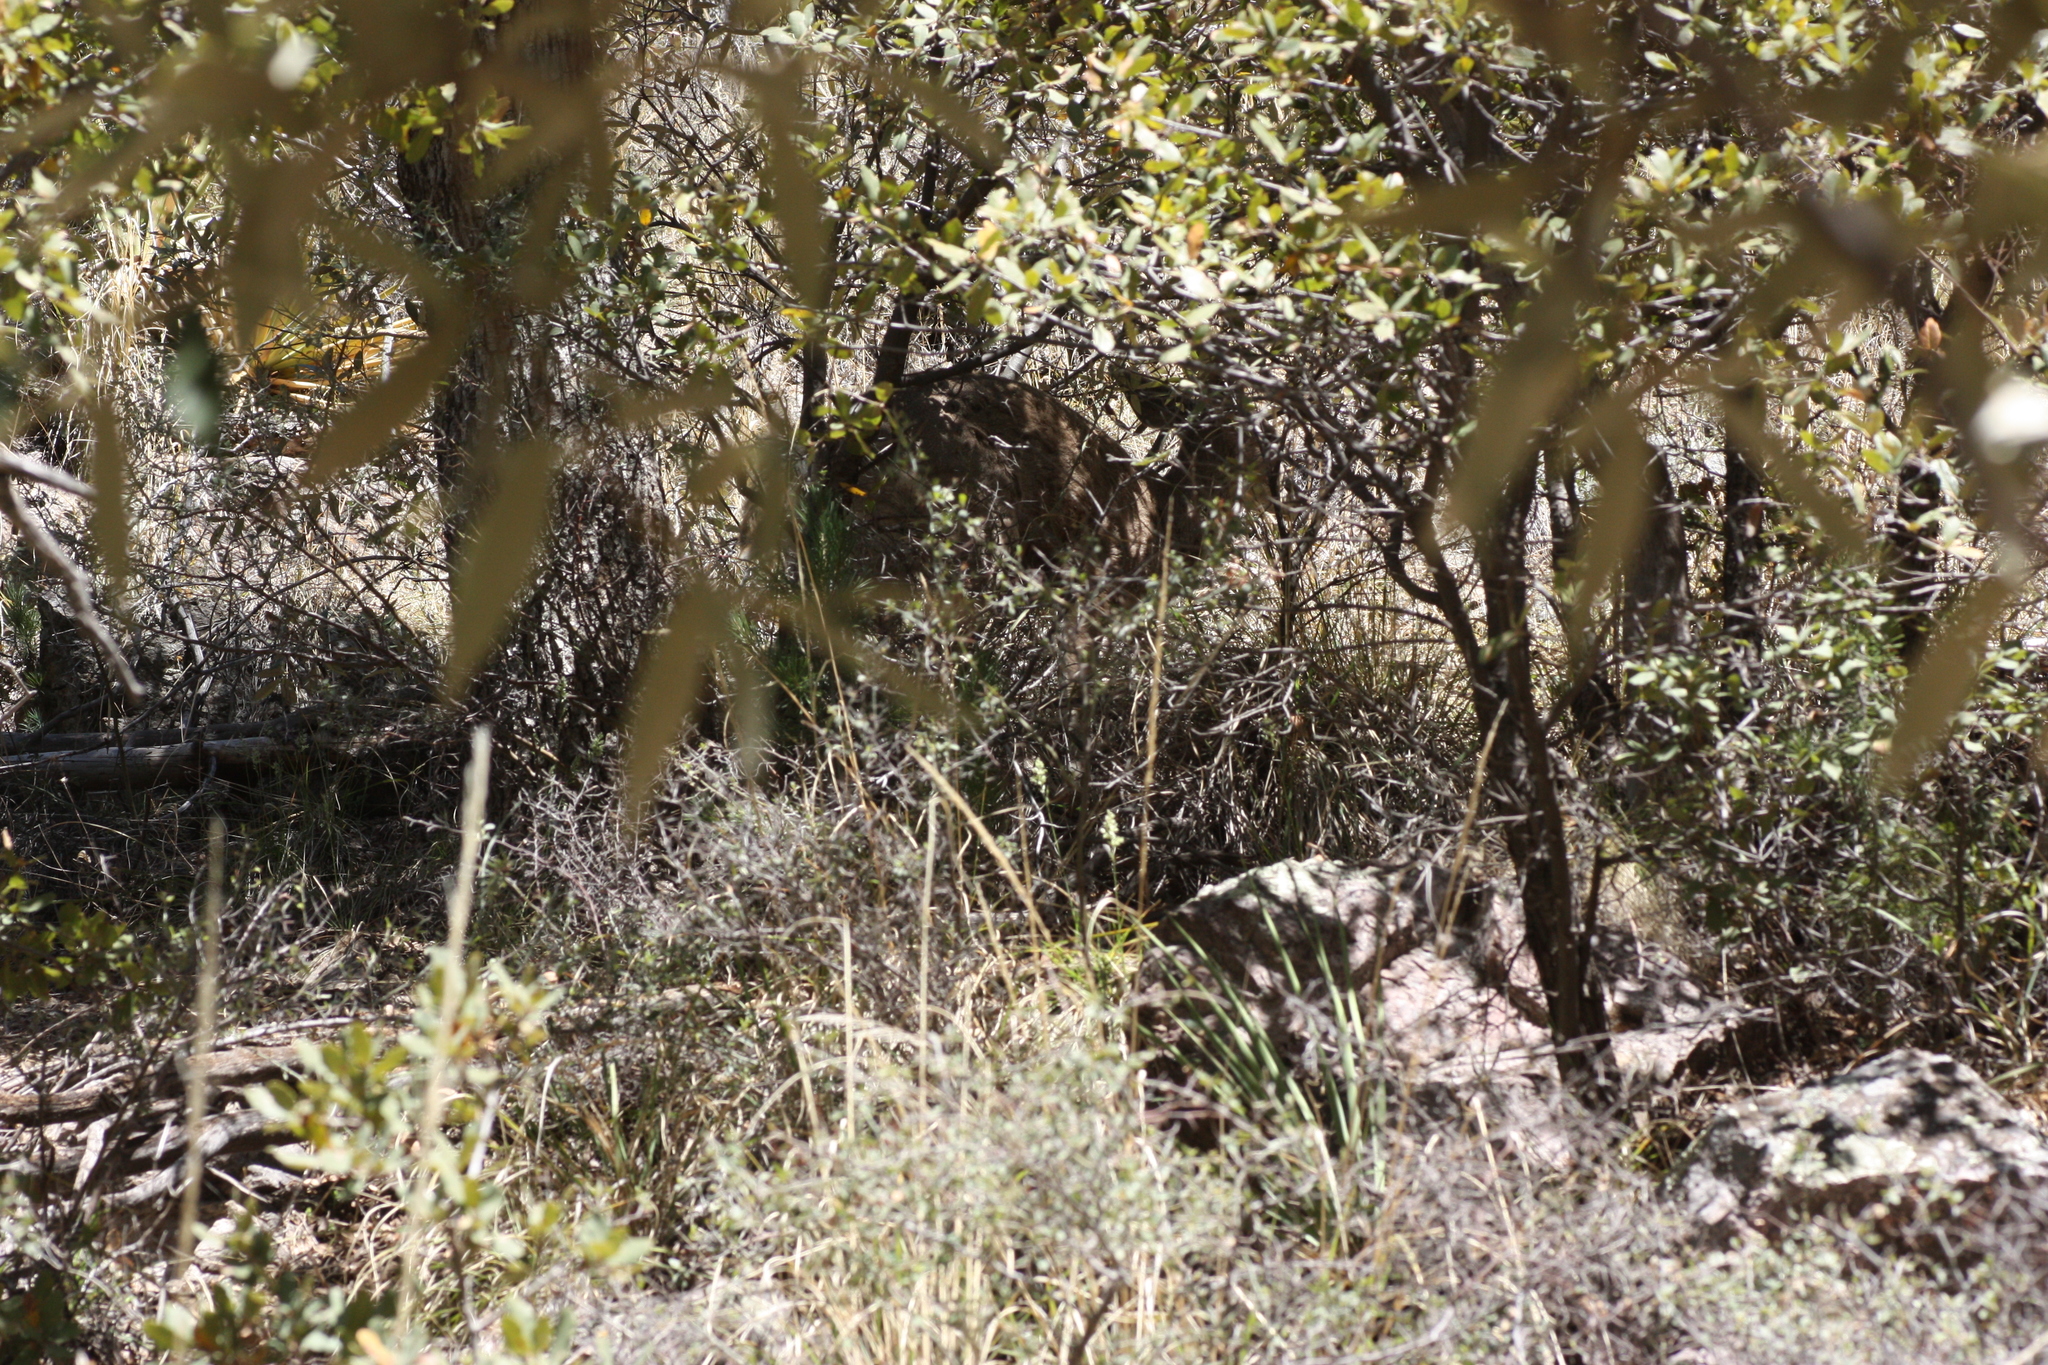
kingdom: Animalia
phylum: Chordata
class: Mammalia
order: Artiodactyla
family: Cervidae
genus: Odocoileus
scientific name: Odocoileus virginianus
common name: White-tailed deer
